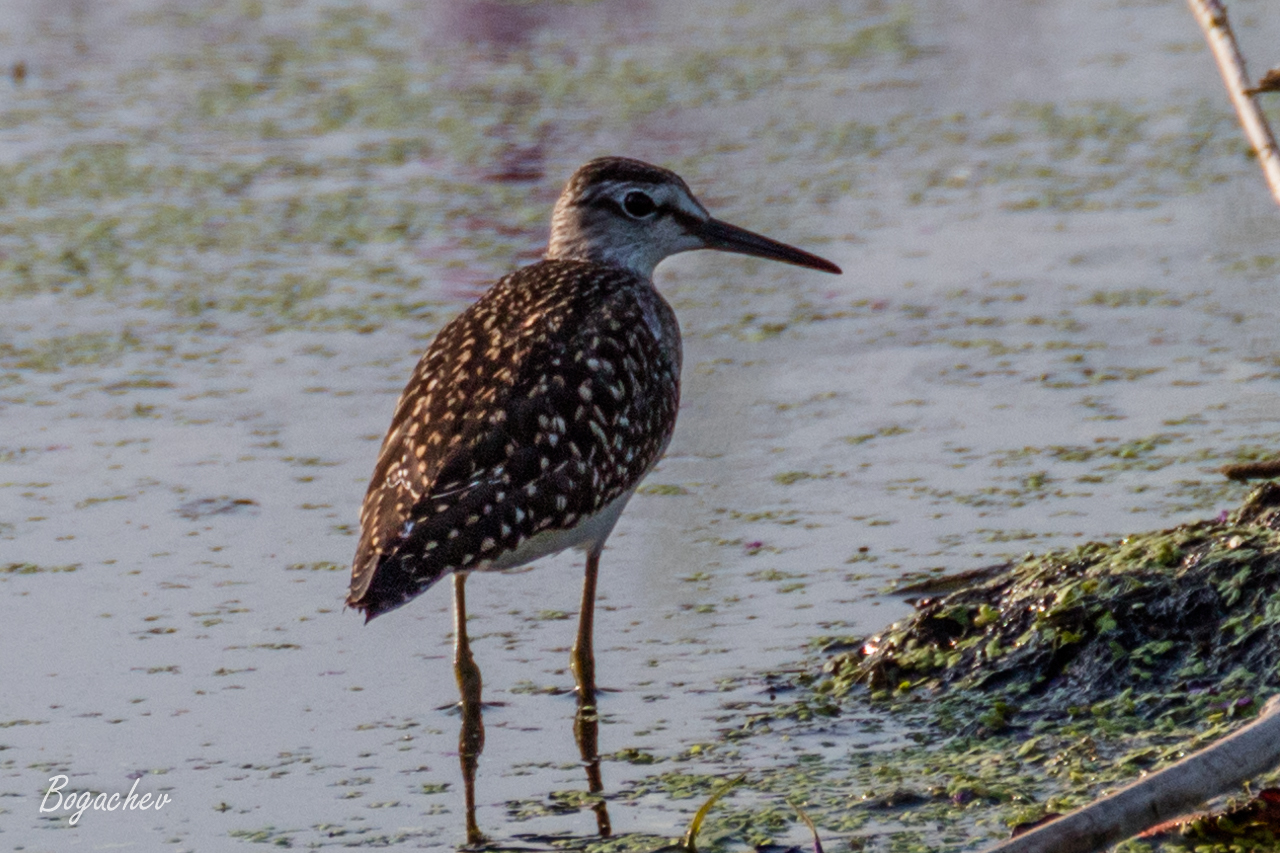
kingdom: Animalia
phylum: Chordata
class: Aves
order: Charadriiformes
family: Scolopacidae
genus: Tringa
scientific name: Tringa glareola
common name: Wood sandpiper
